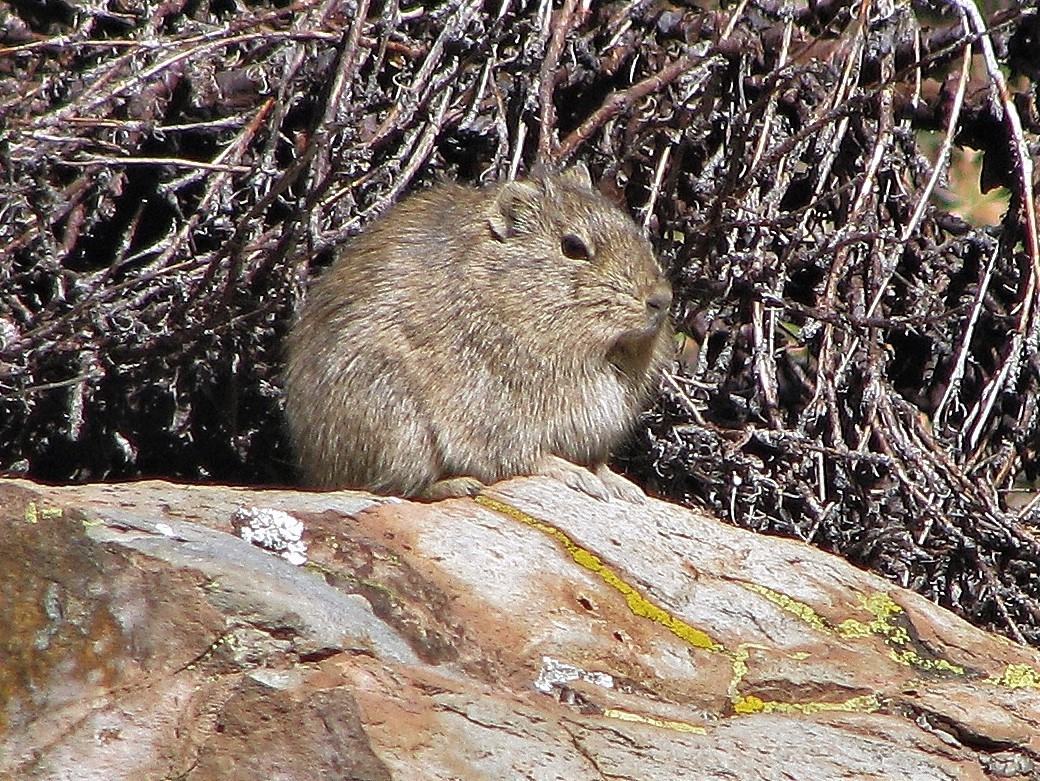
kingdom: Animalia
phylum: Chordata
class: Mammalia
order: Rodentia
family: Caviidae
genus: Galea
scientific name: Galea comes
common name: Southern highland yellow-toothed cavy
